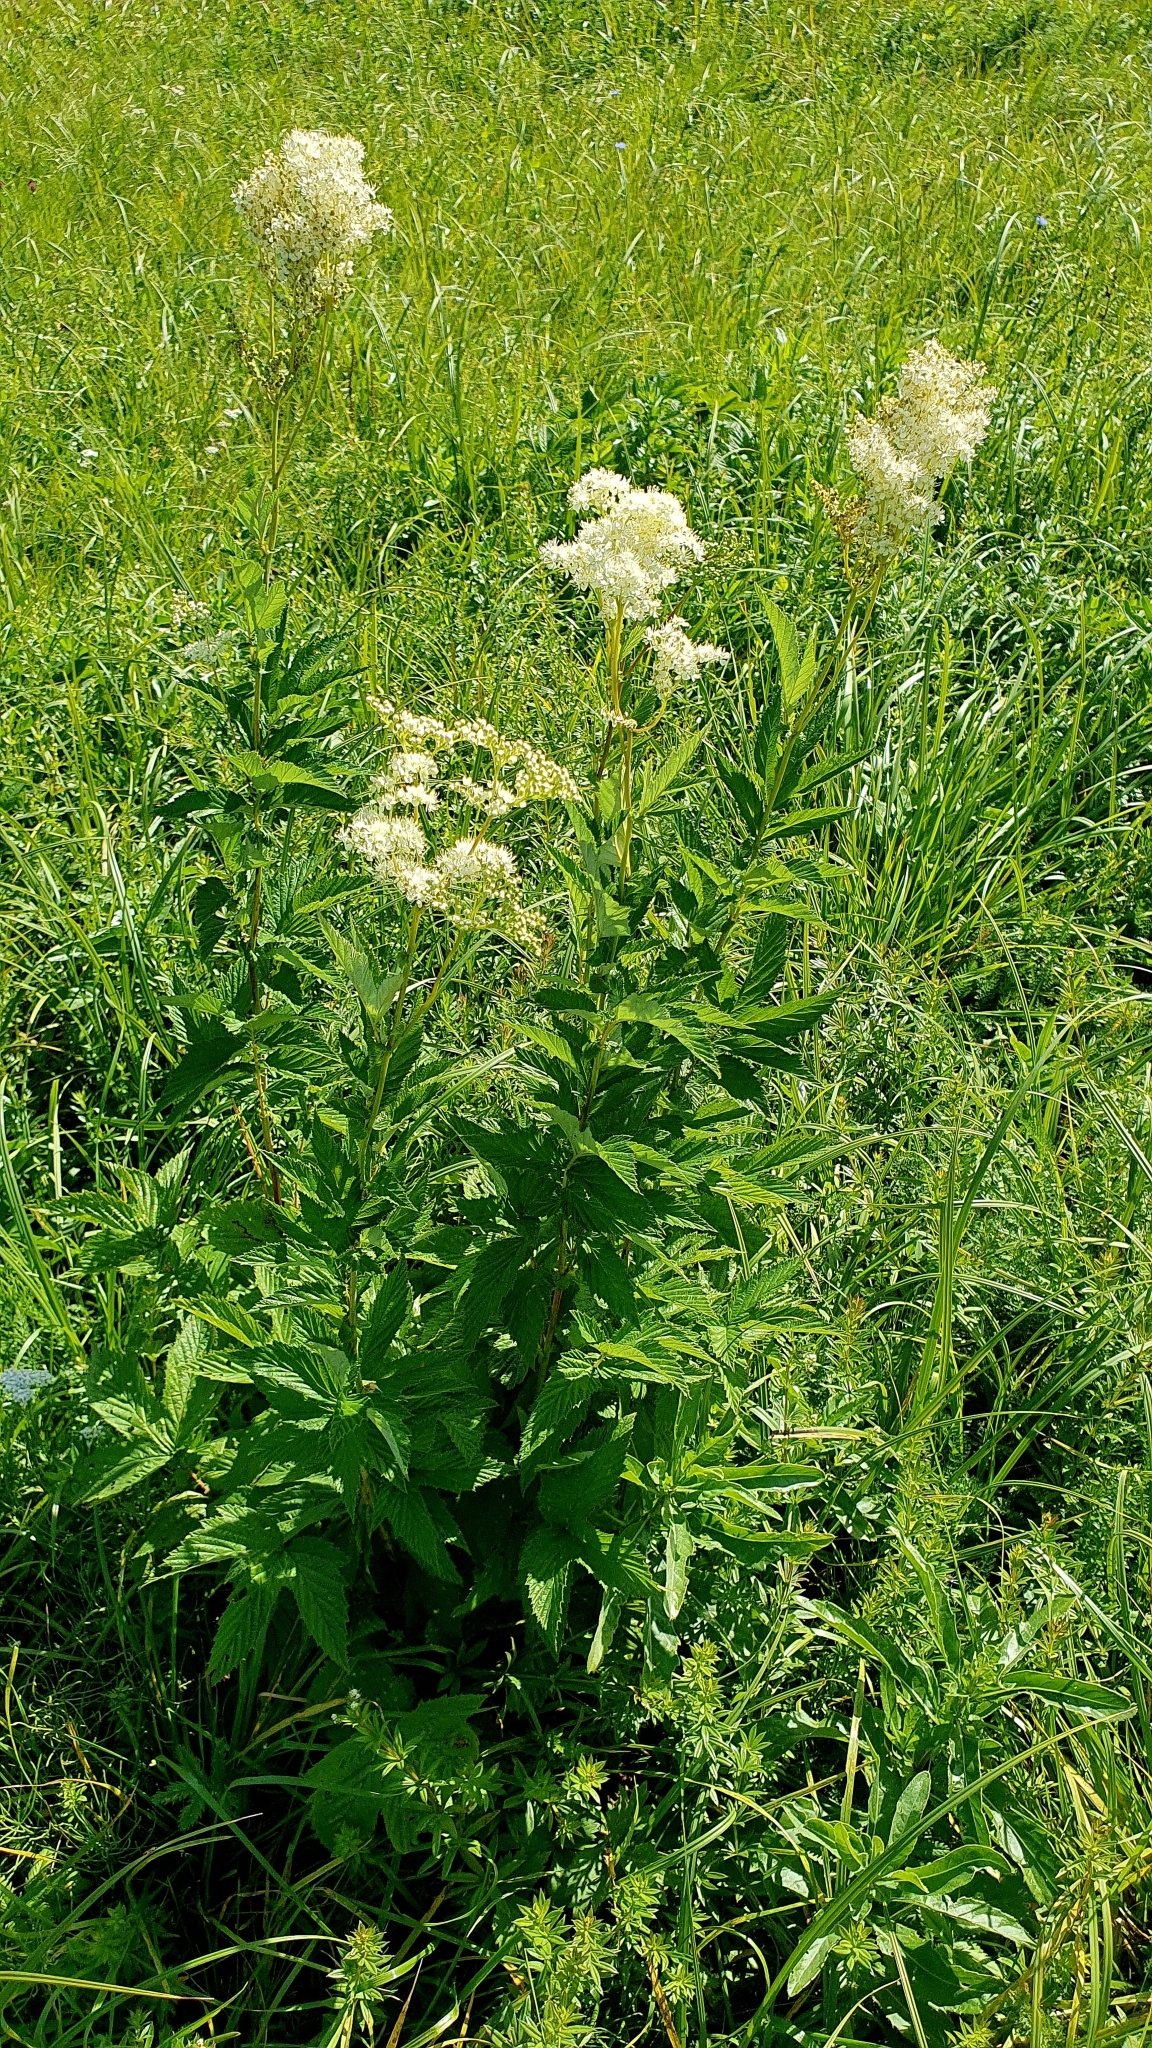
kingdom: Plantae
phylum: Tracheophyta
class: Magnoliopsida
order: Rosales
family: Rosaceae
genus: Filipendula
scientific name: Filipendula ulmaria
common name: Meadowsweet
